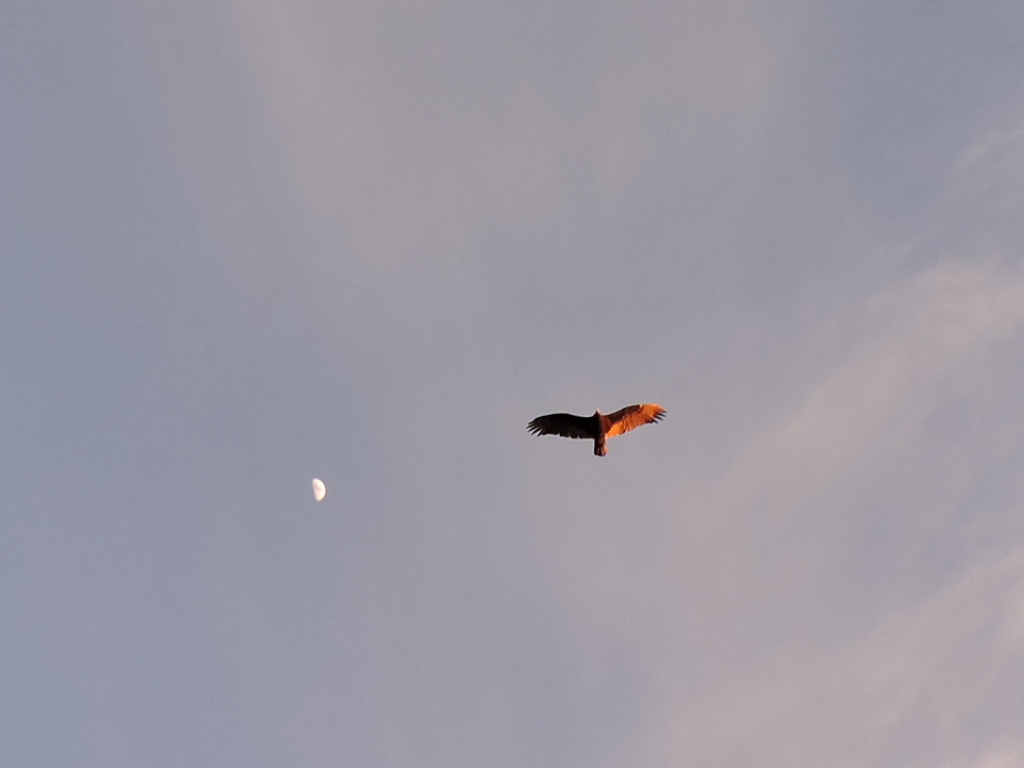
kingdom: Animalia
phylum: Chordata
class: Aves
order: Accipitriformes
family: Cathartidae
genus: Cathartes
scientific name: Cathartes aura
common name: Turkey vulture
